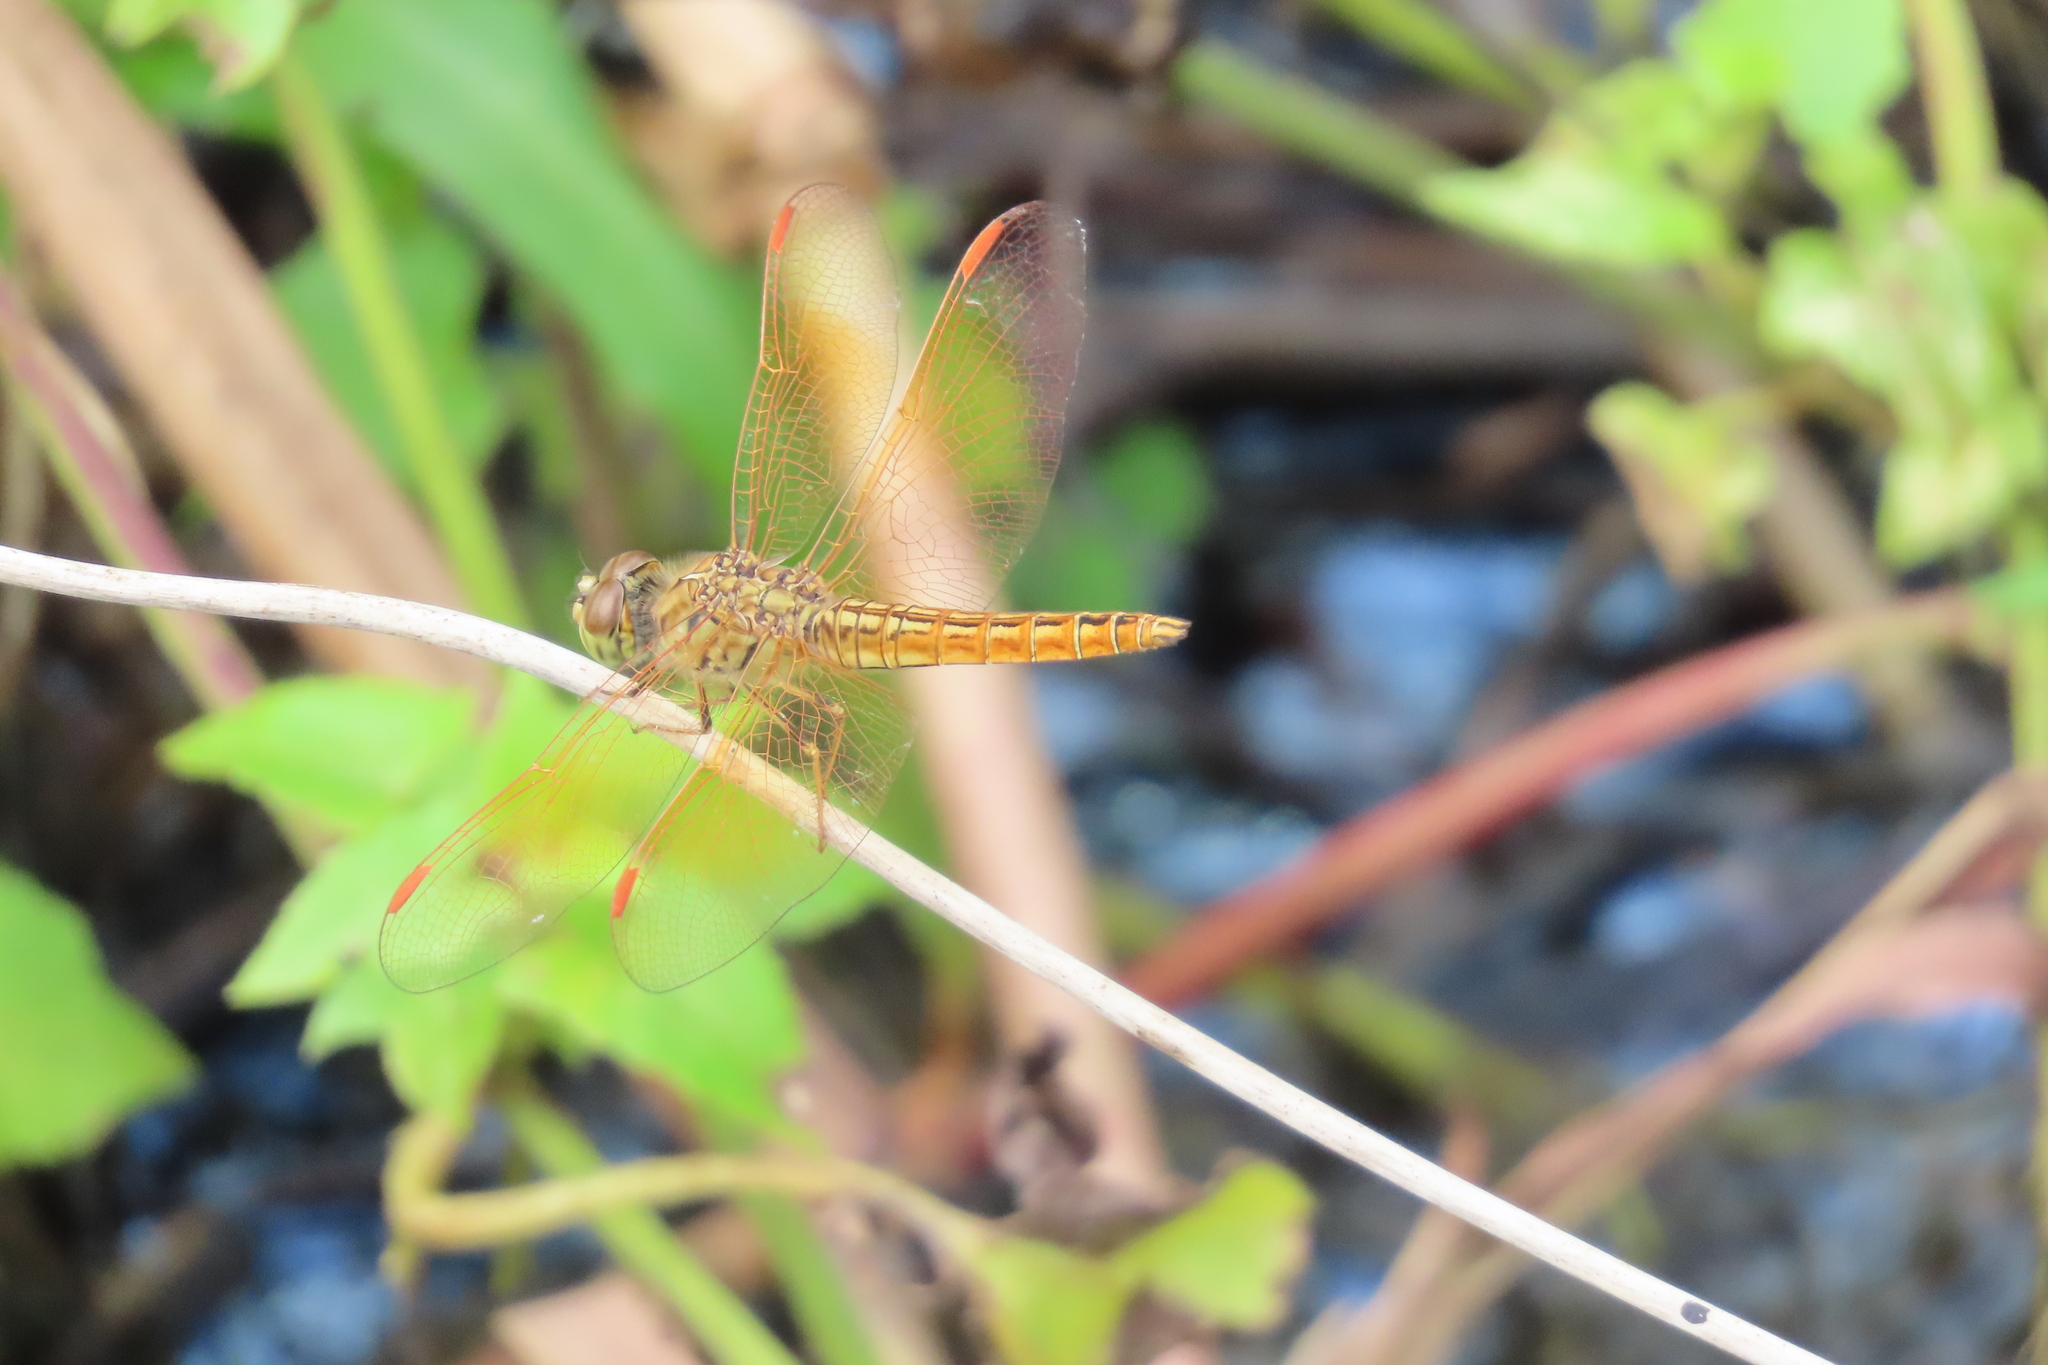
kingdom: Animalia
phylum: Arthropoda
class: Insecta
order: Odonata
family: Libellulidae
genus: Brachythemis
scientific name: Brachythemis contaminata
